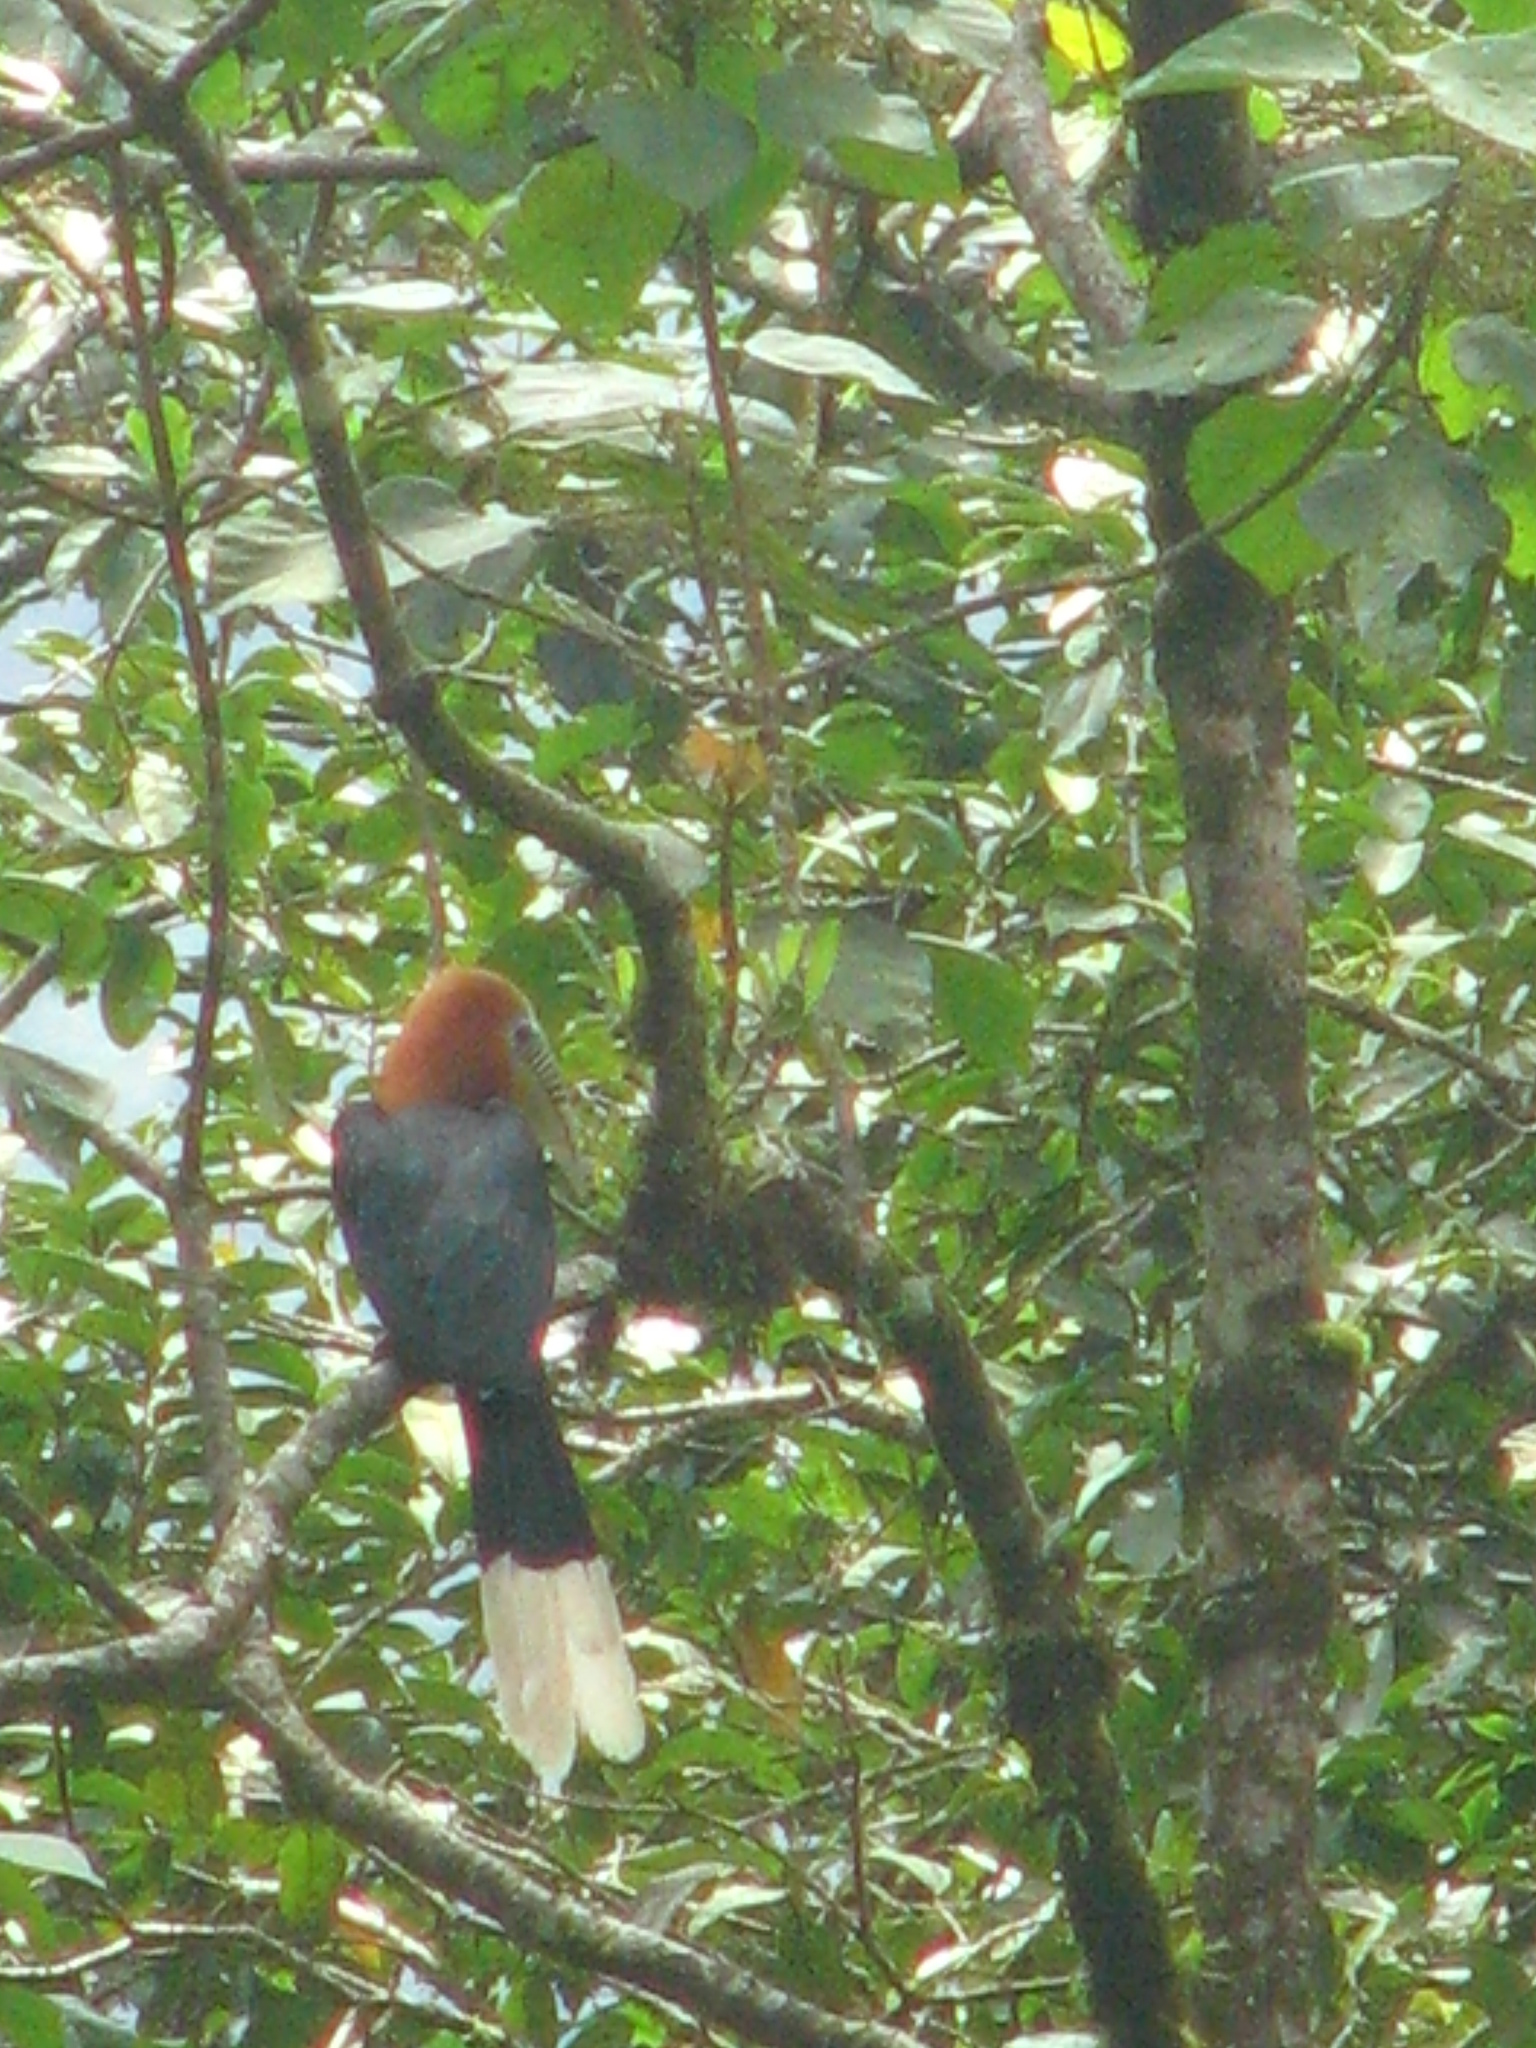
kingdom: Animalia
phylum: Chordata
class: Aves
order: Bucerotiformes
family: Bucerotidae
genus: Aceros
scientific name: Aceros nipalensis
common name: Rufous-necked hornbill
